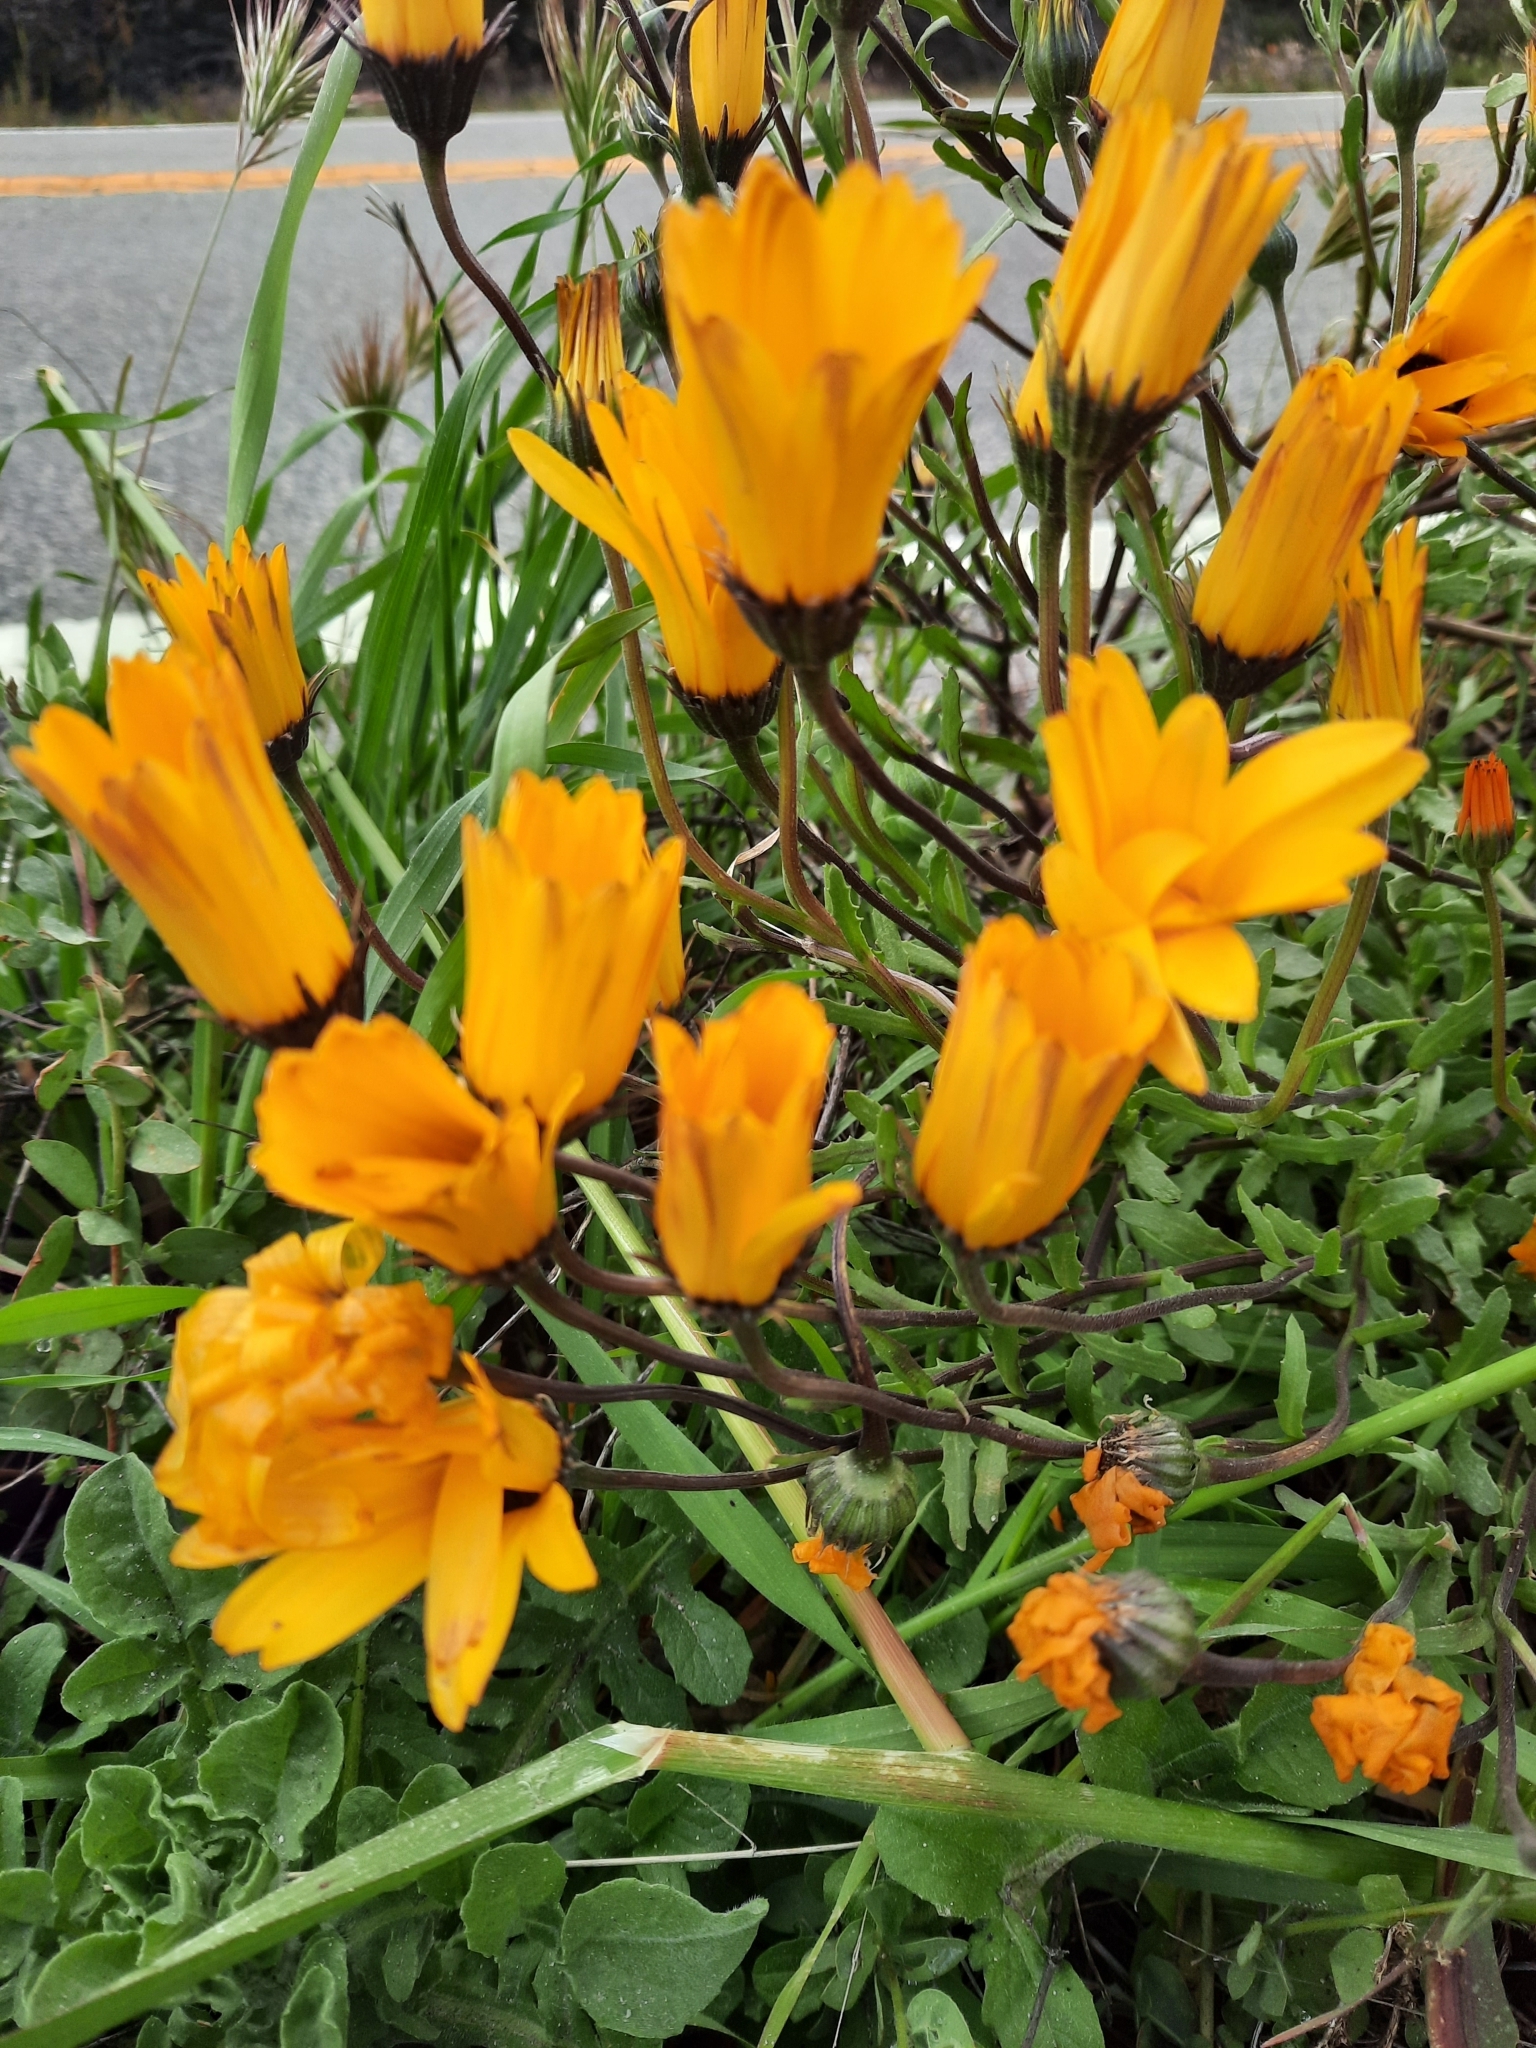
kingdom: Plantae
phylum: Tracheophyta
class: Magnoliopsida
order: Asterales
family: Asteraceae
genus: Dimorphotheca
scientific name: Dimorphotheca sinuata
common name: Glandular cape marigold
